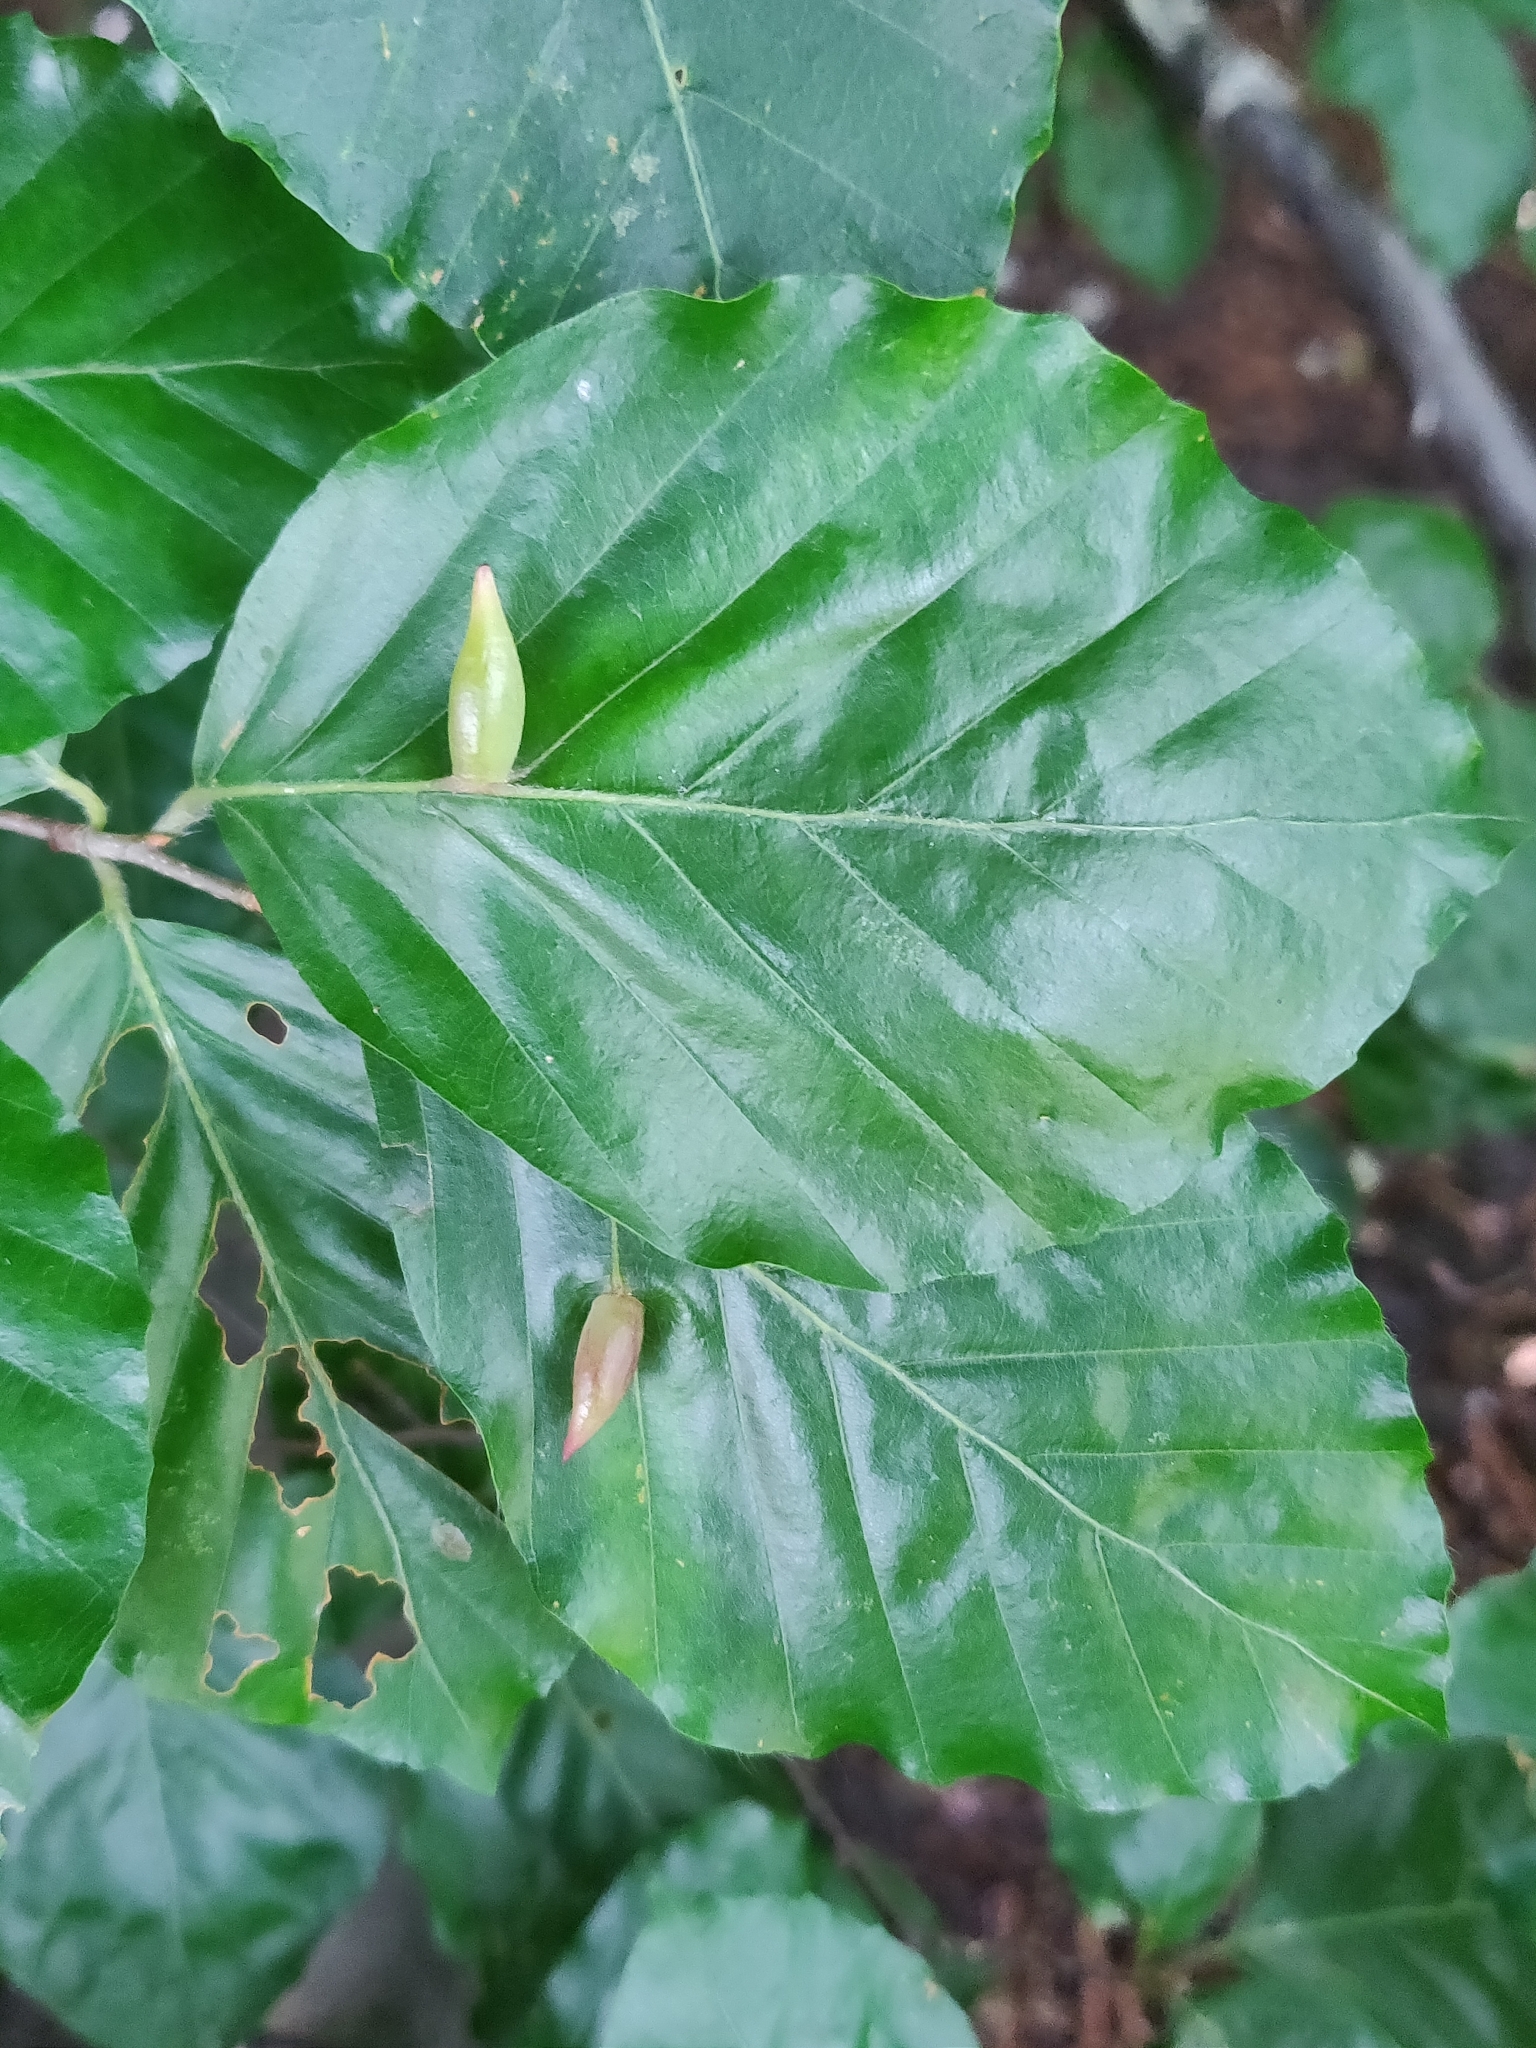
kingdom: Animalia
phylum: Arthropoda
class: Insecta
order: Diptera
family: Cecidomyiidae
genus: Mikiola
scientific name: Mikiola fagi
